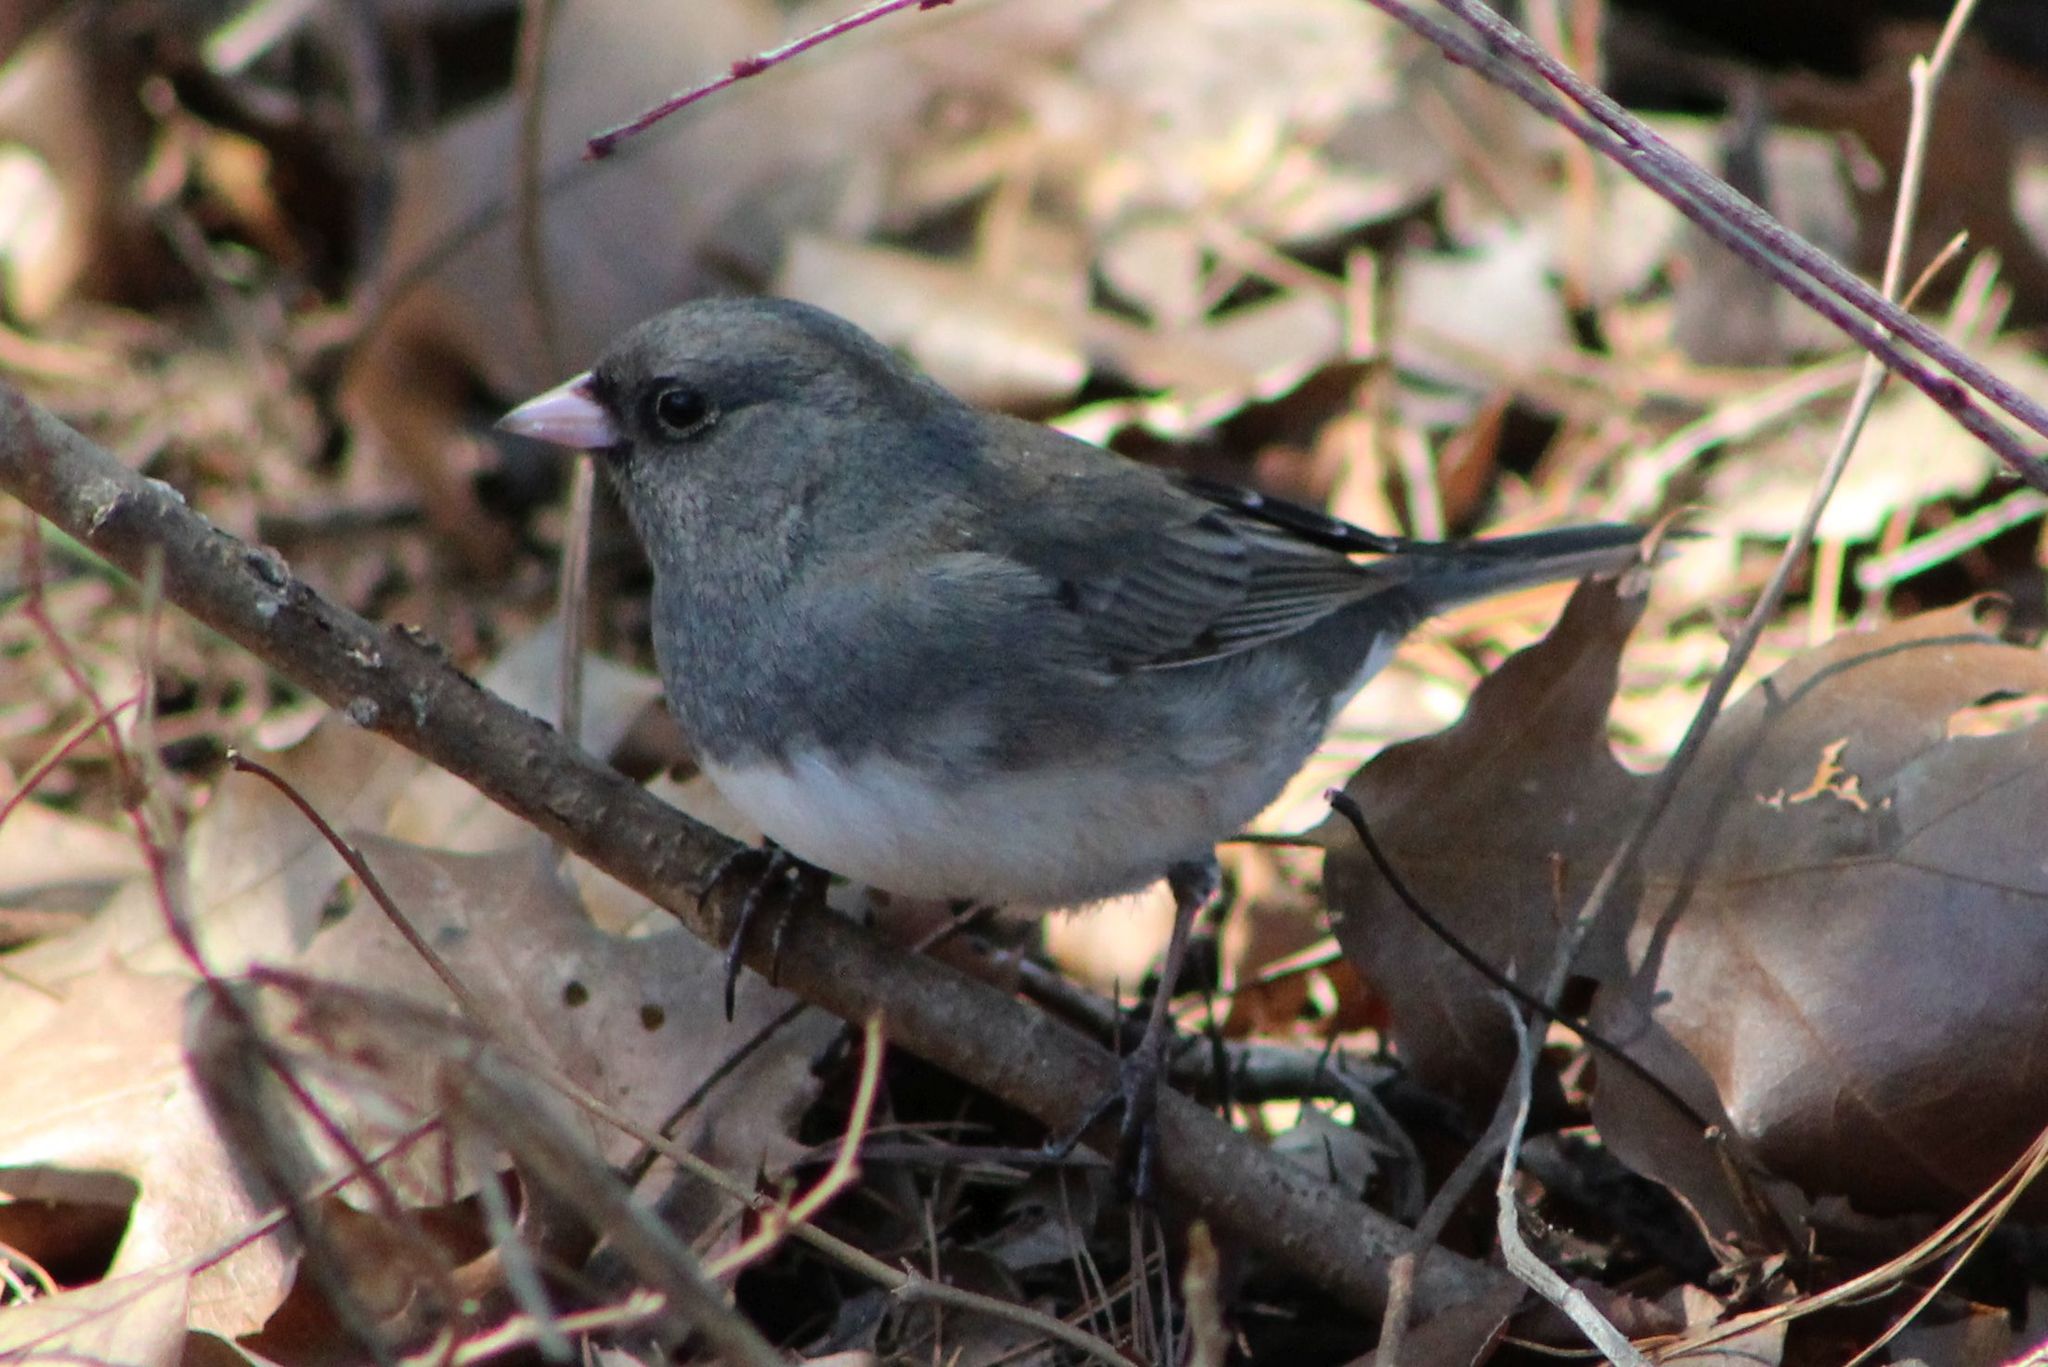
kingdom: Animalia
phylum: Chordata
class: Aves
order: Passeriformes
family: Passerellidae
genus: Junco
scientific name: Junco hyemalis
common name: Dark-eyed junco
